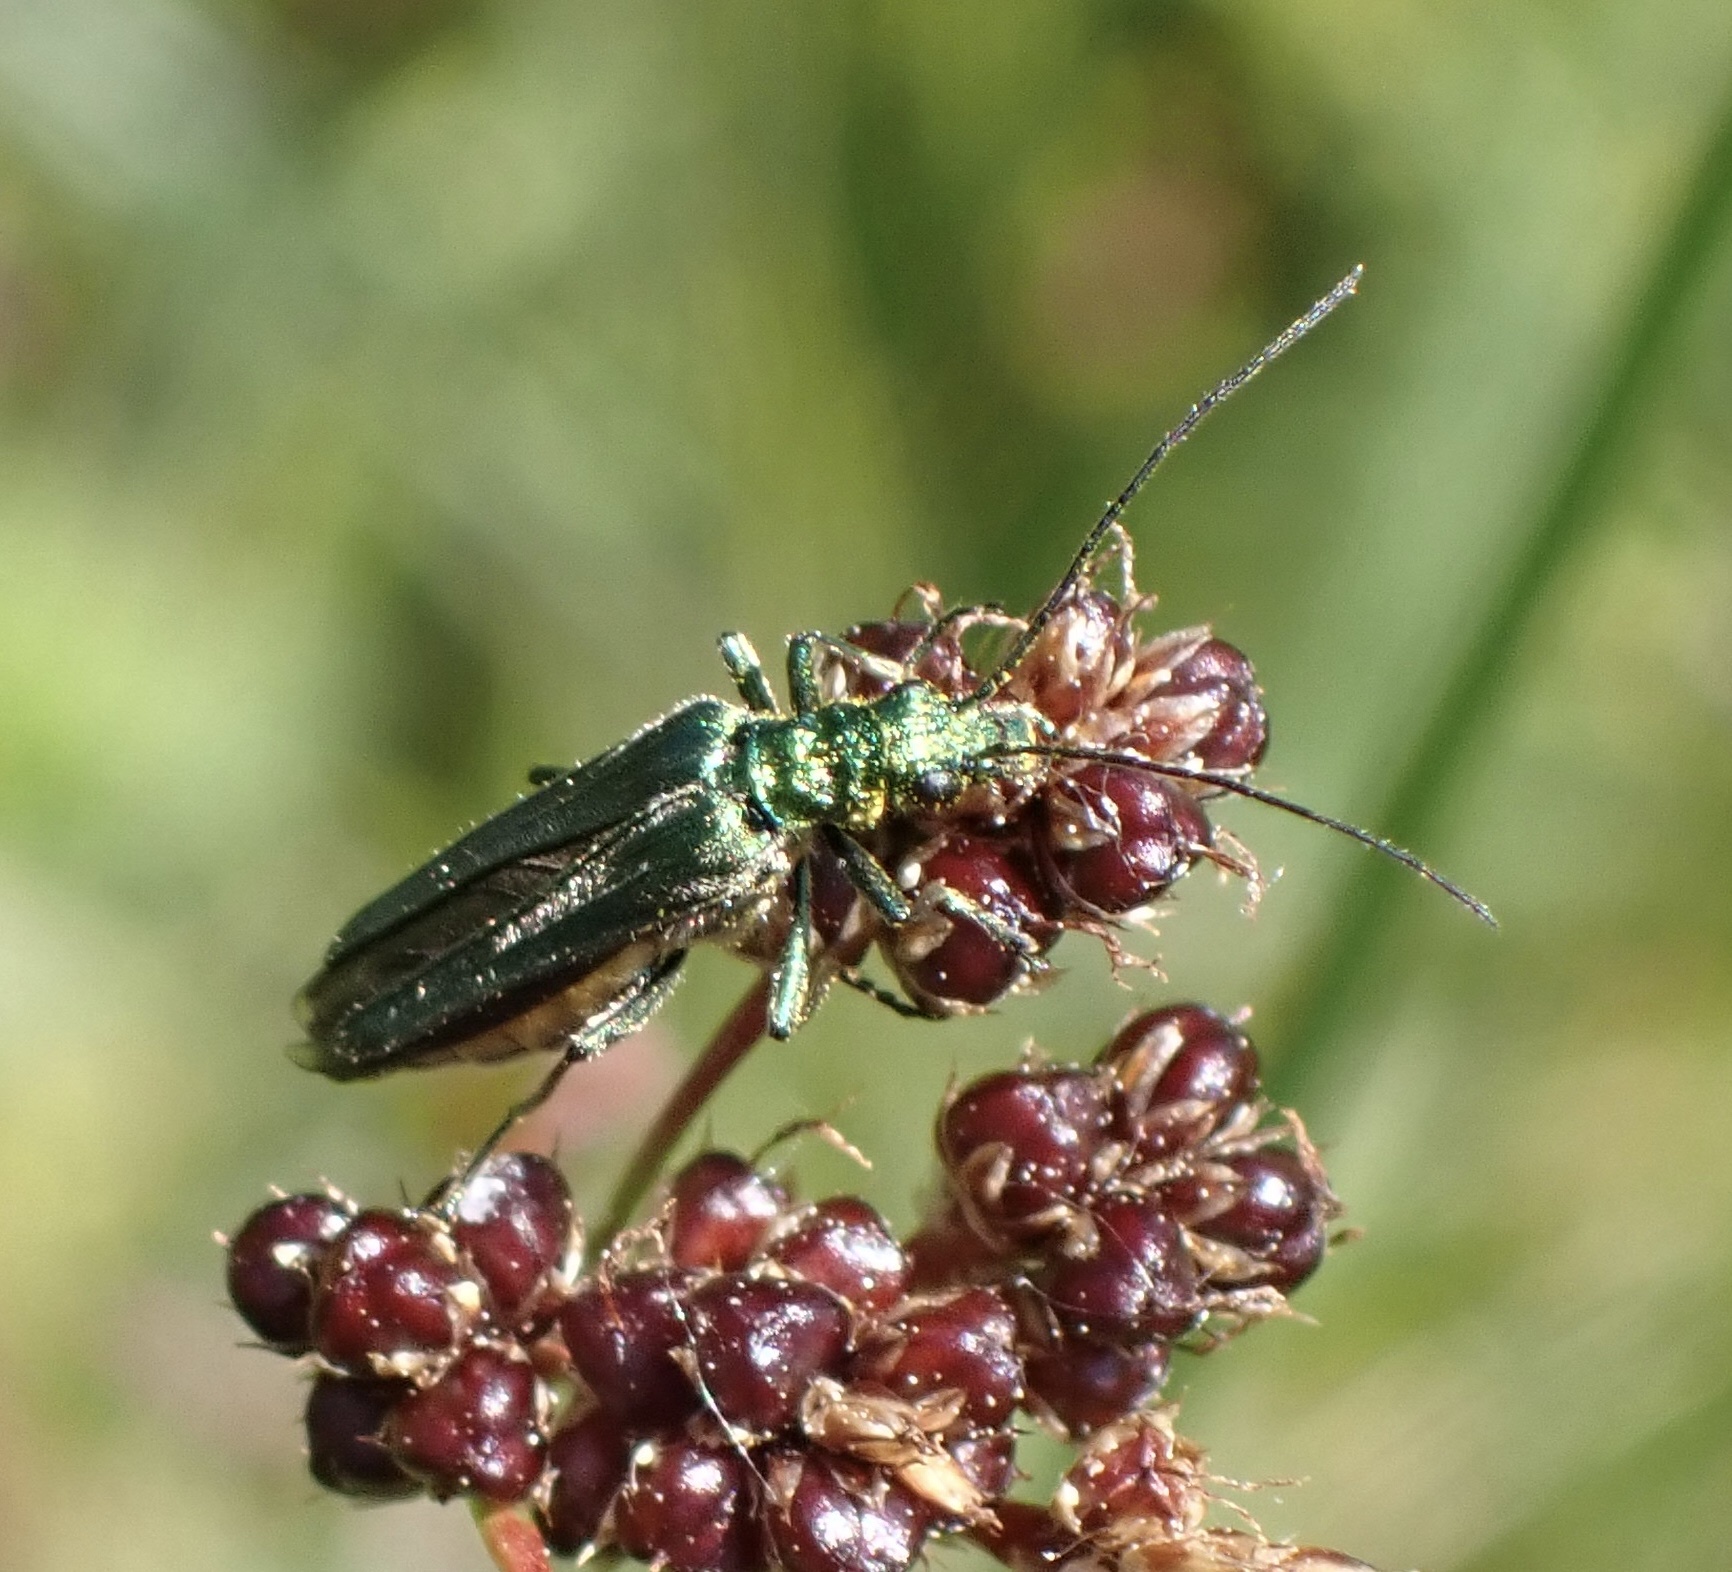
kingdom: Animalia
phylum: Arthropoda
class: Insecta
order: Coleoptera
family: Oedemeridae
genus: Oedemera
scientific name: Oedemera nobilis
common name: Swollen-thighed beetle
